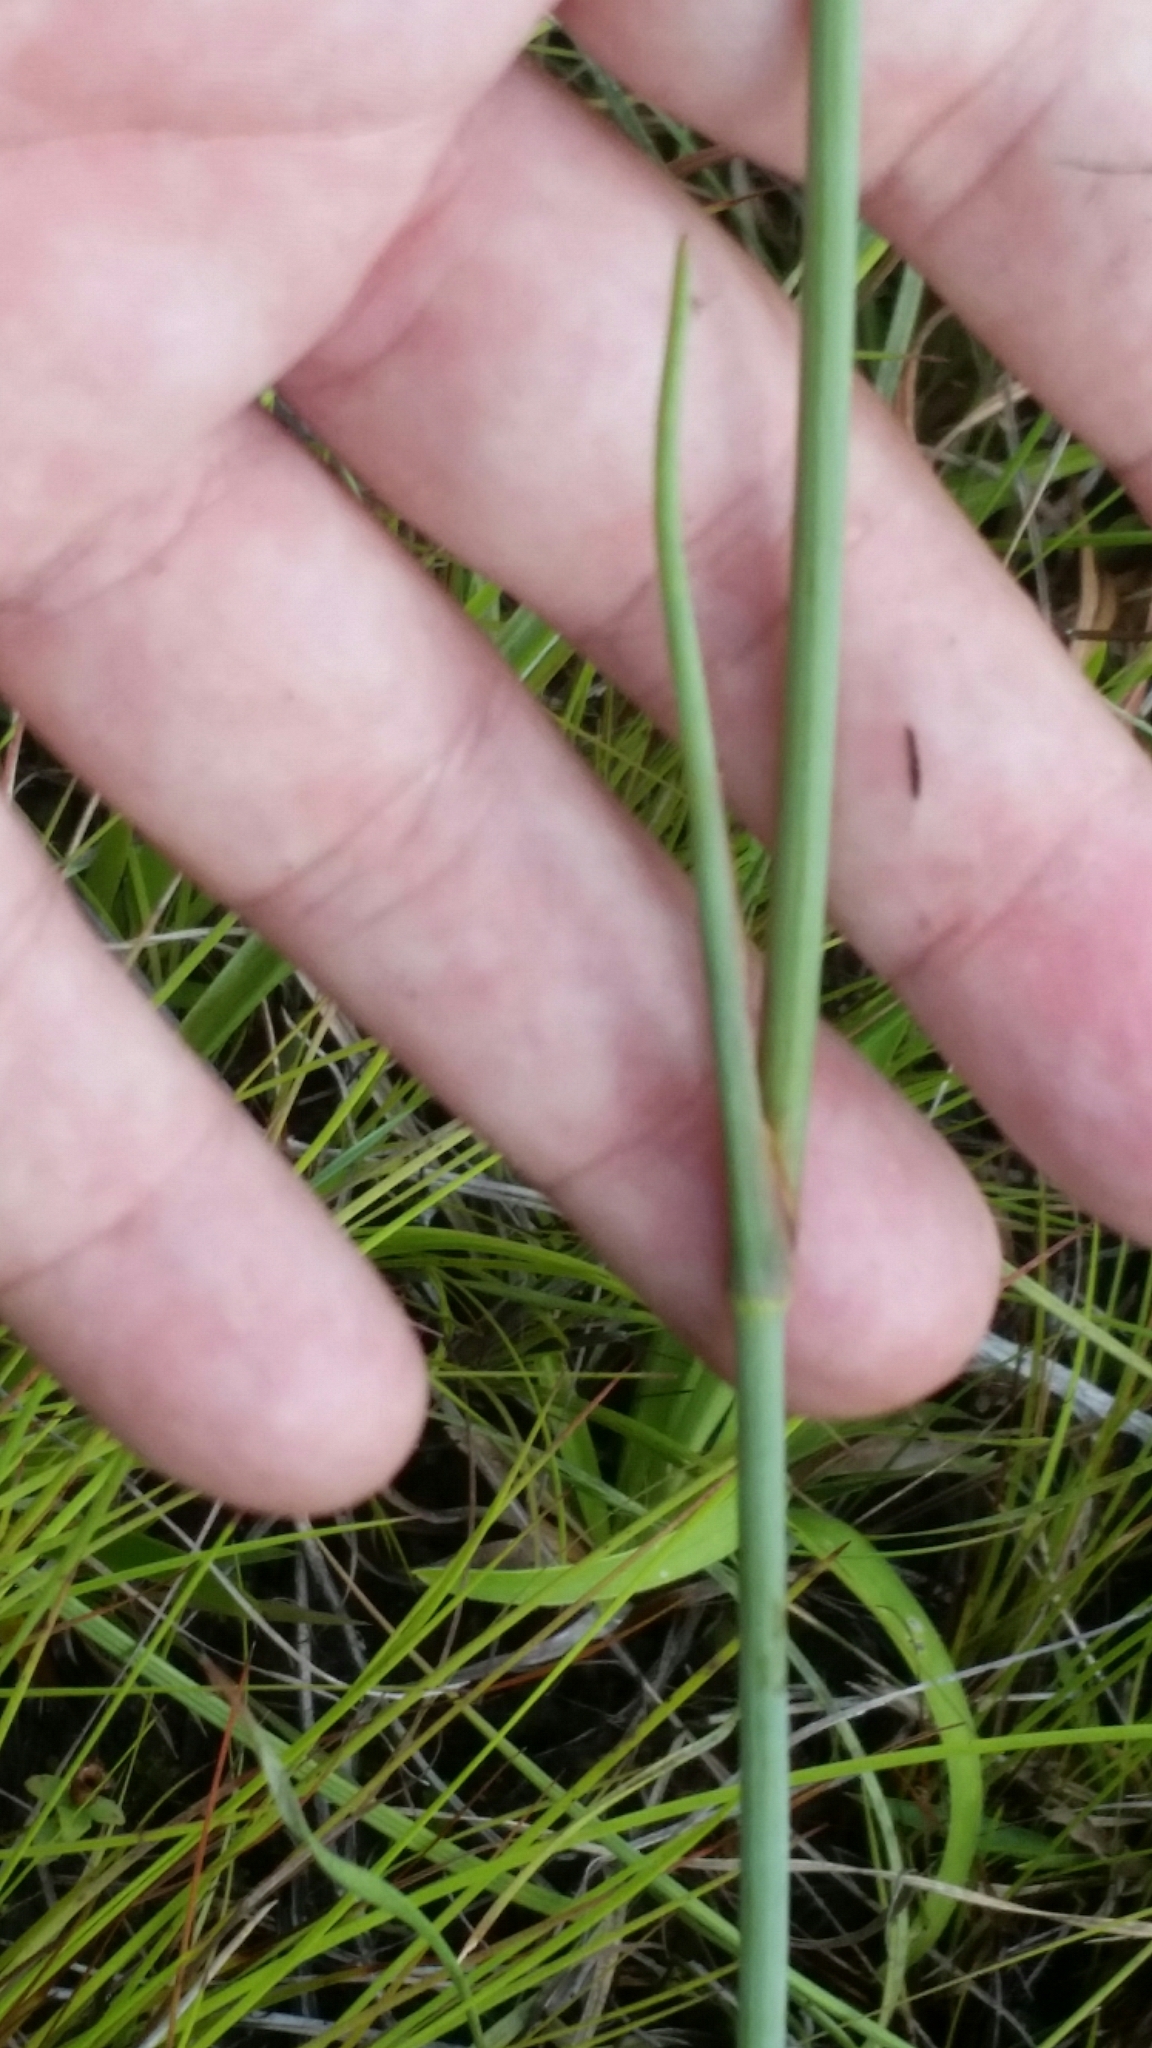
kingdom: Plantae
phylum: Tracheophyta
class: Magnoliopsida
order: Apiales
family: Apiaceae
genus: Tiedemannia
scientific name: Tiedemannia filiformis
